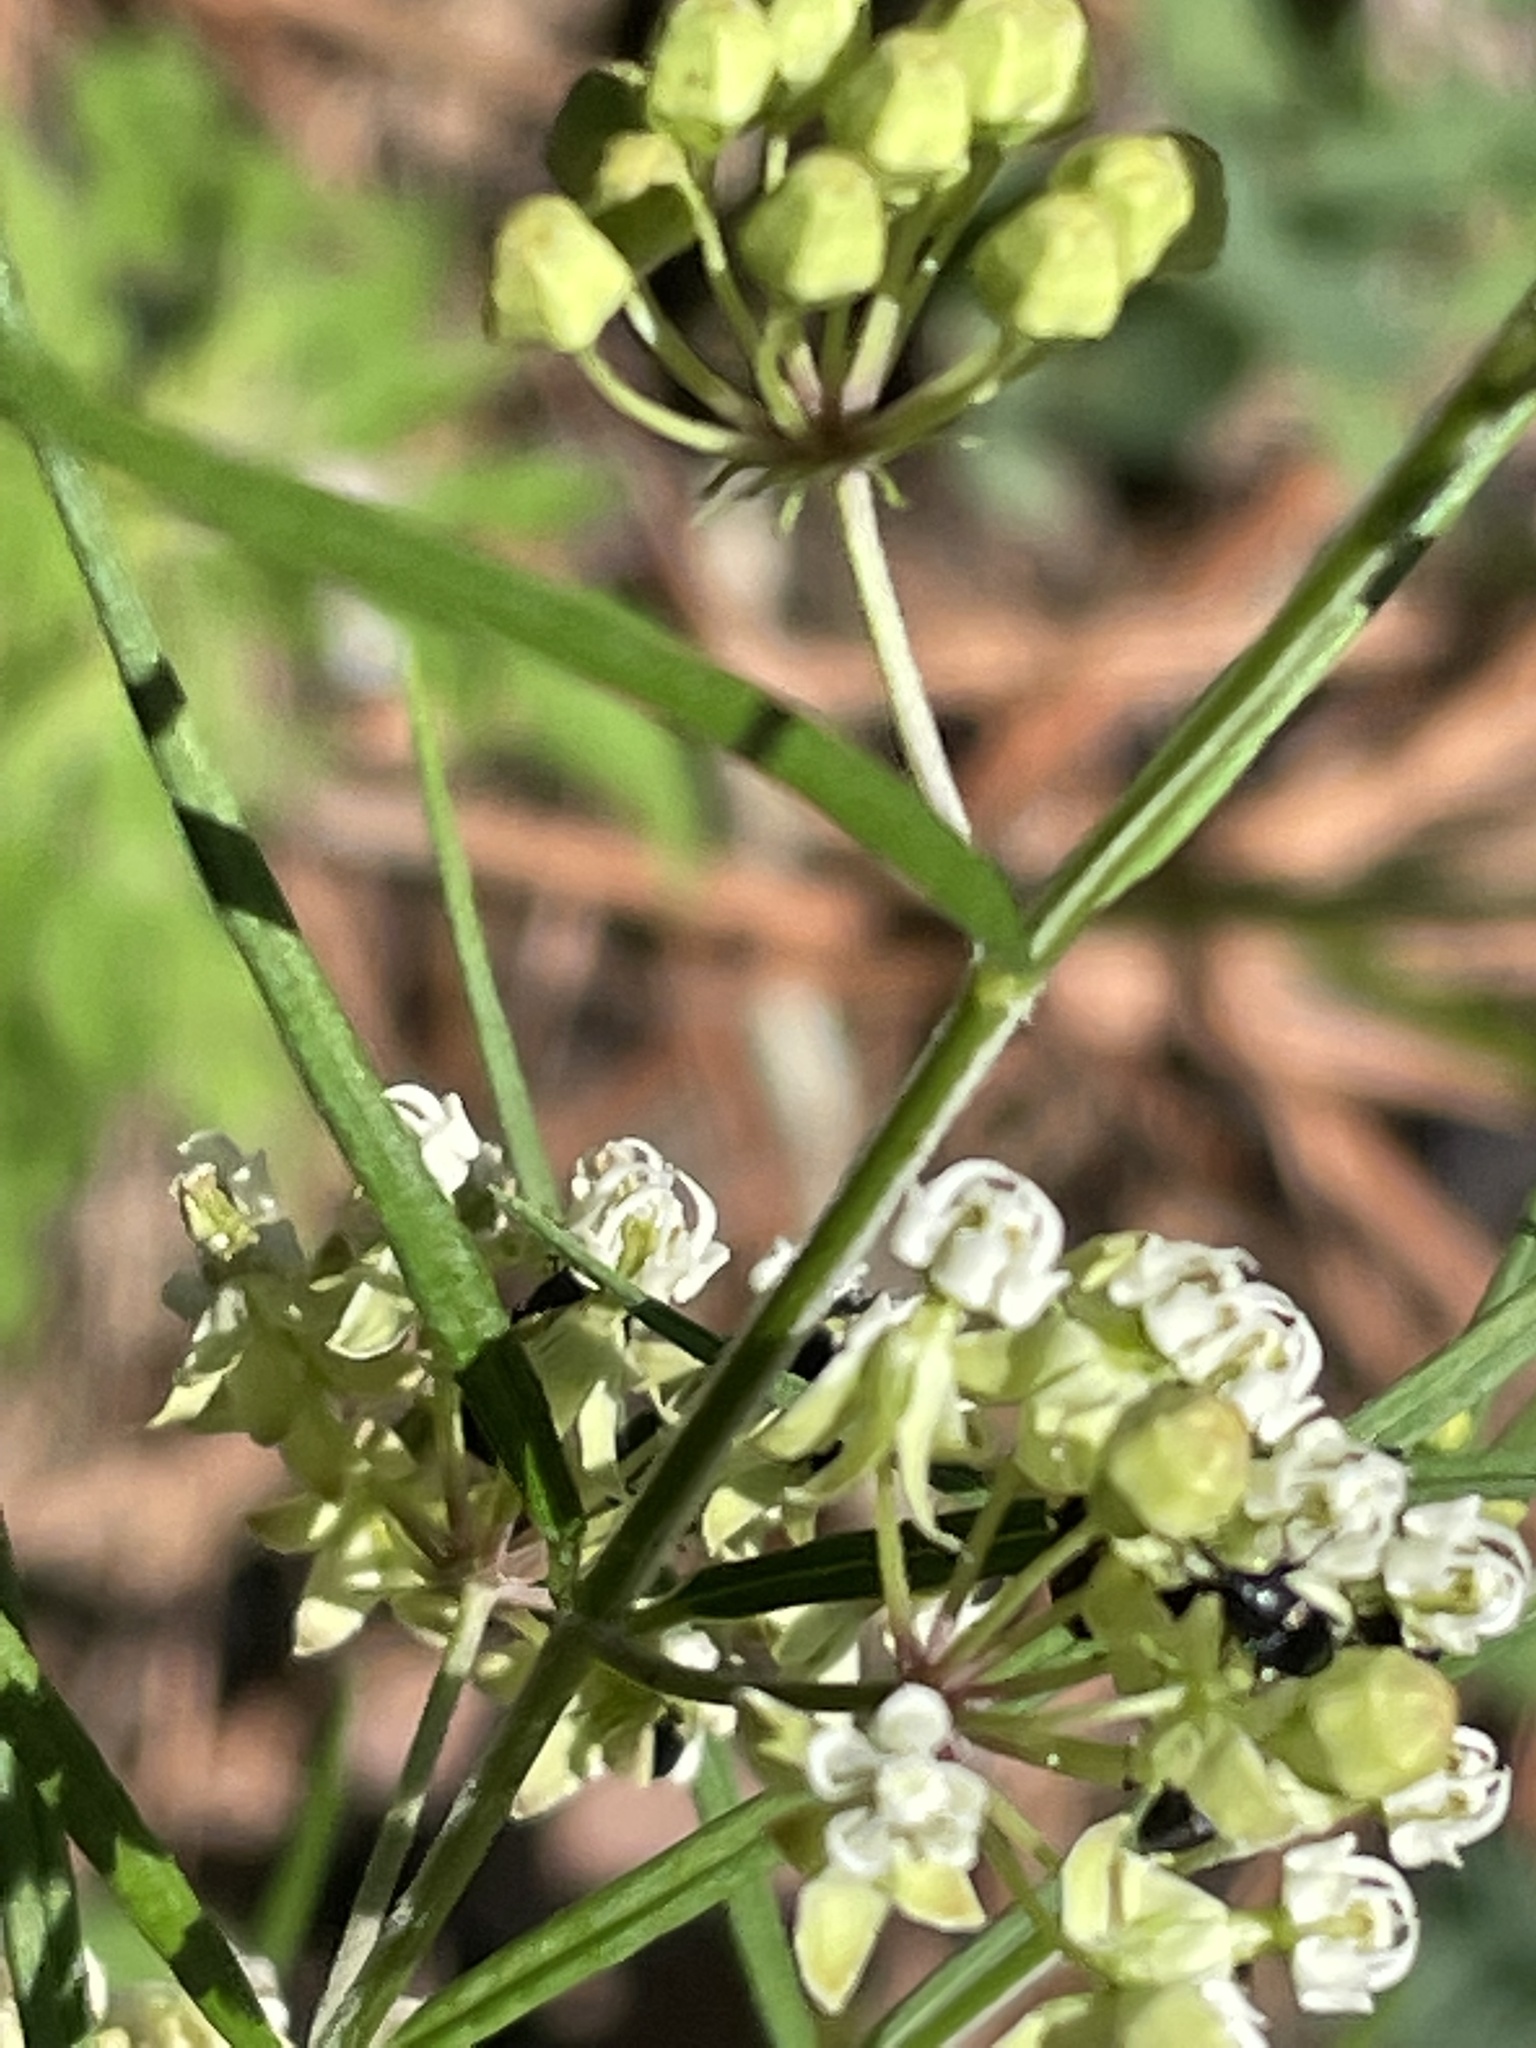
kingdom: Plantae
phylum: Tracheophyta
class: Magnoliopsida
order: Gentianales
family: Apocynaceae
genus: Asclepias
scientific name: Asclepias verticillata
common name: Eastern whorled milkweed
